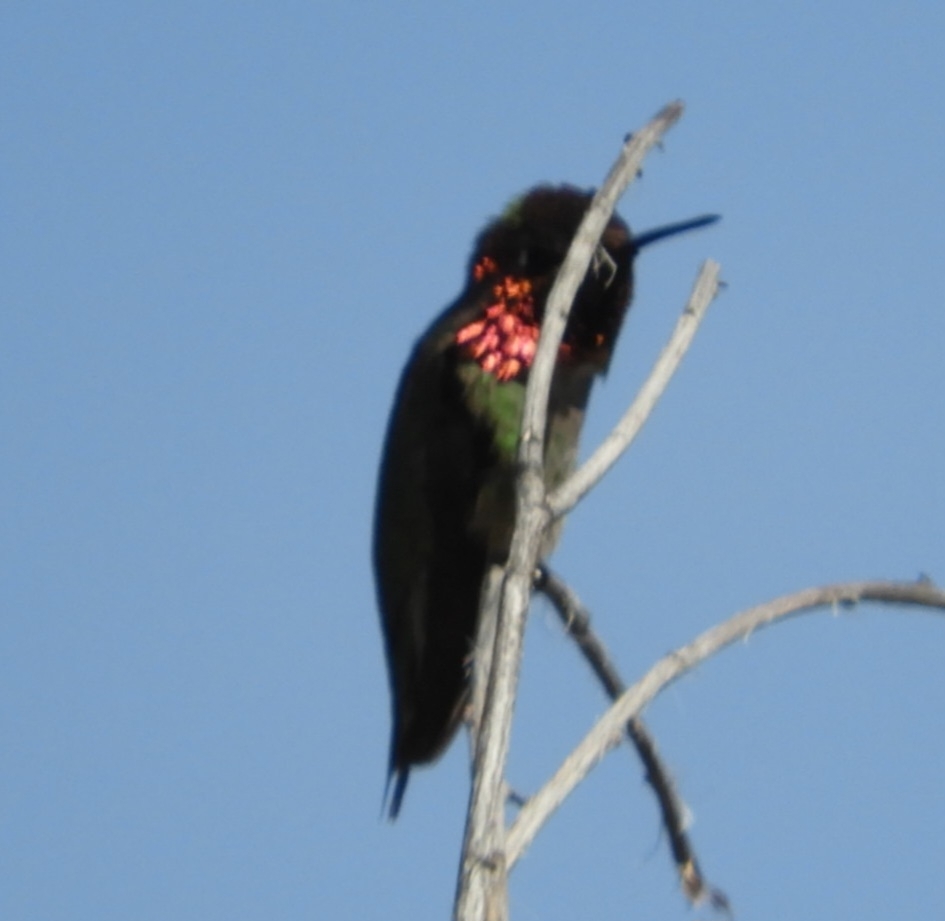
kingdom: Animalia
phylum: Chordata
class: Aves
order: Apodiformes
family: Trochilidae
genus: Calypte
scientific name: Calypte anna
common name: Anna's hummingbird
